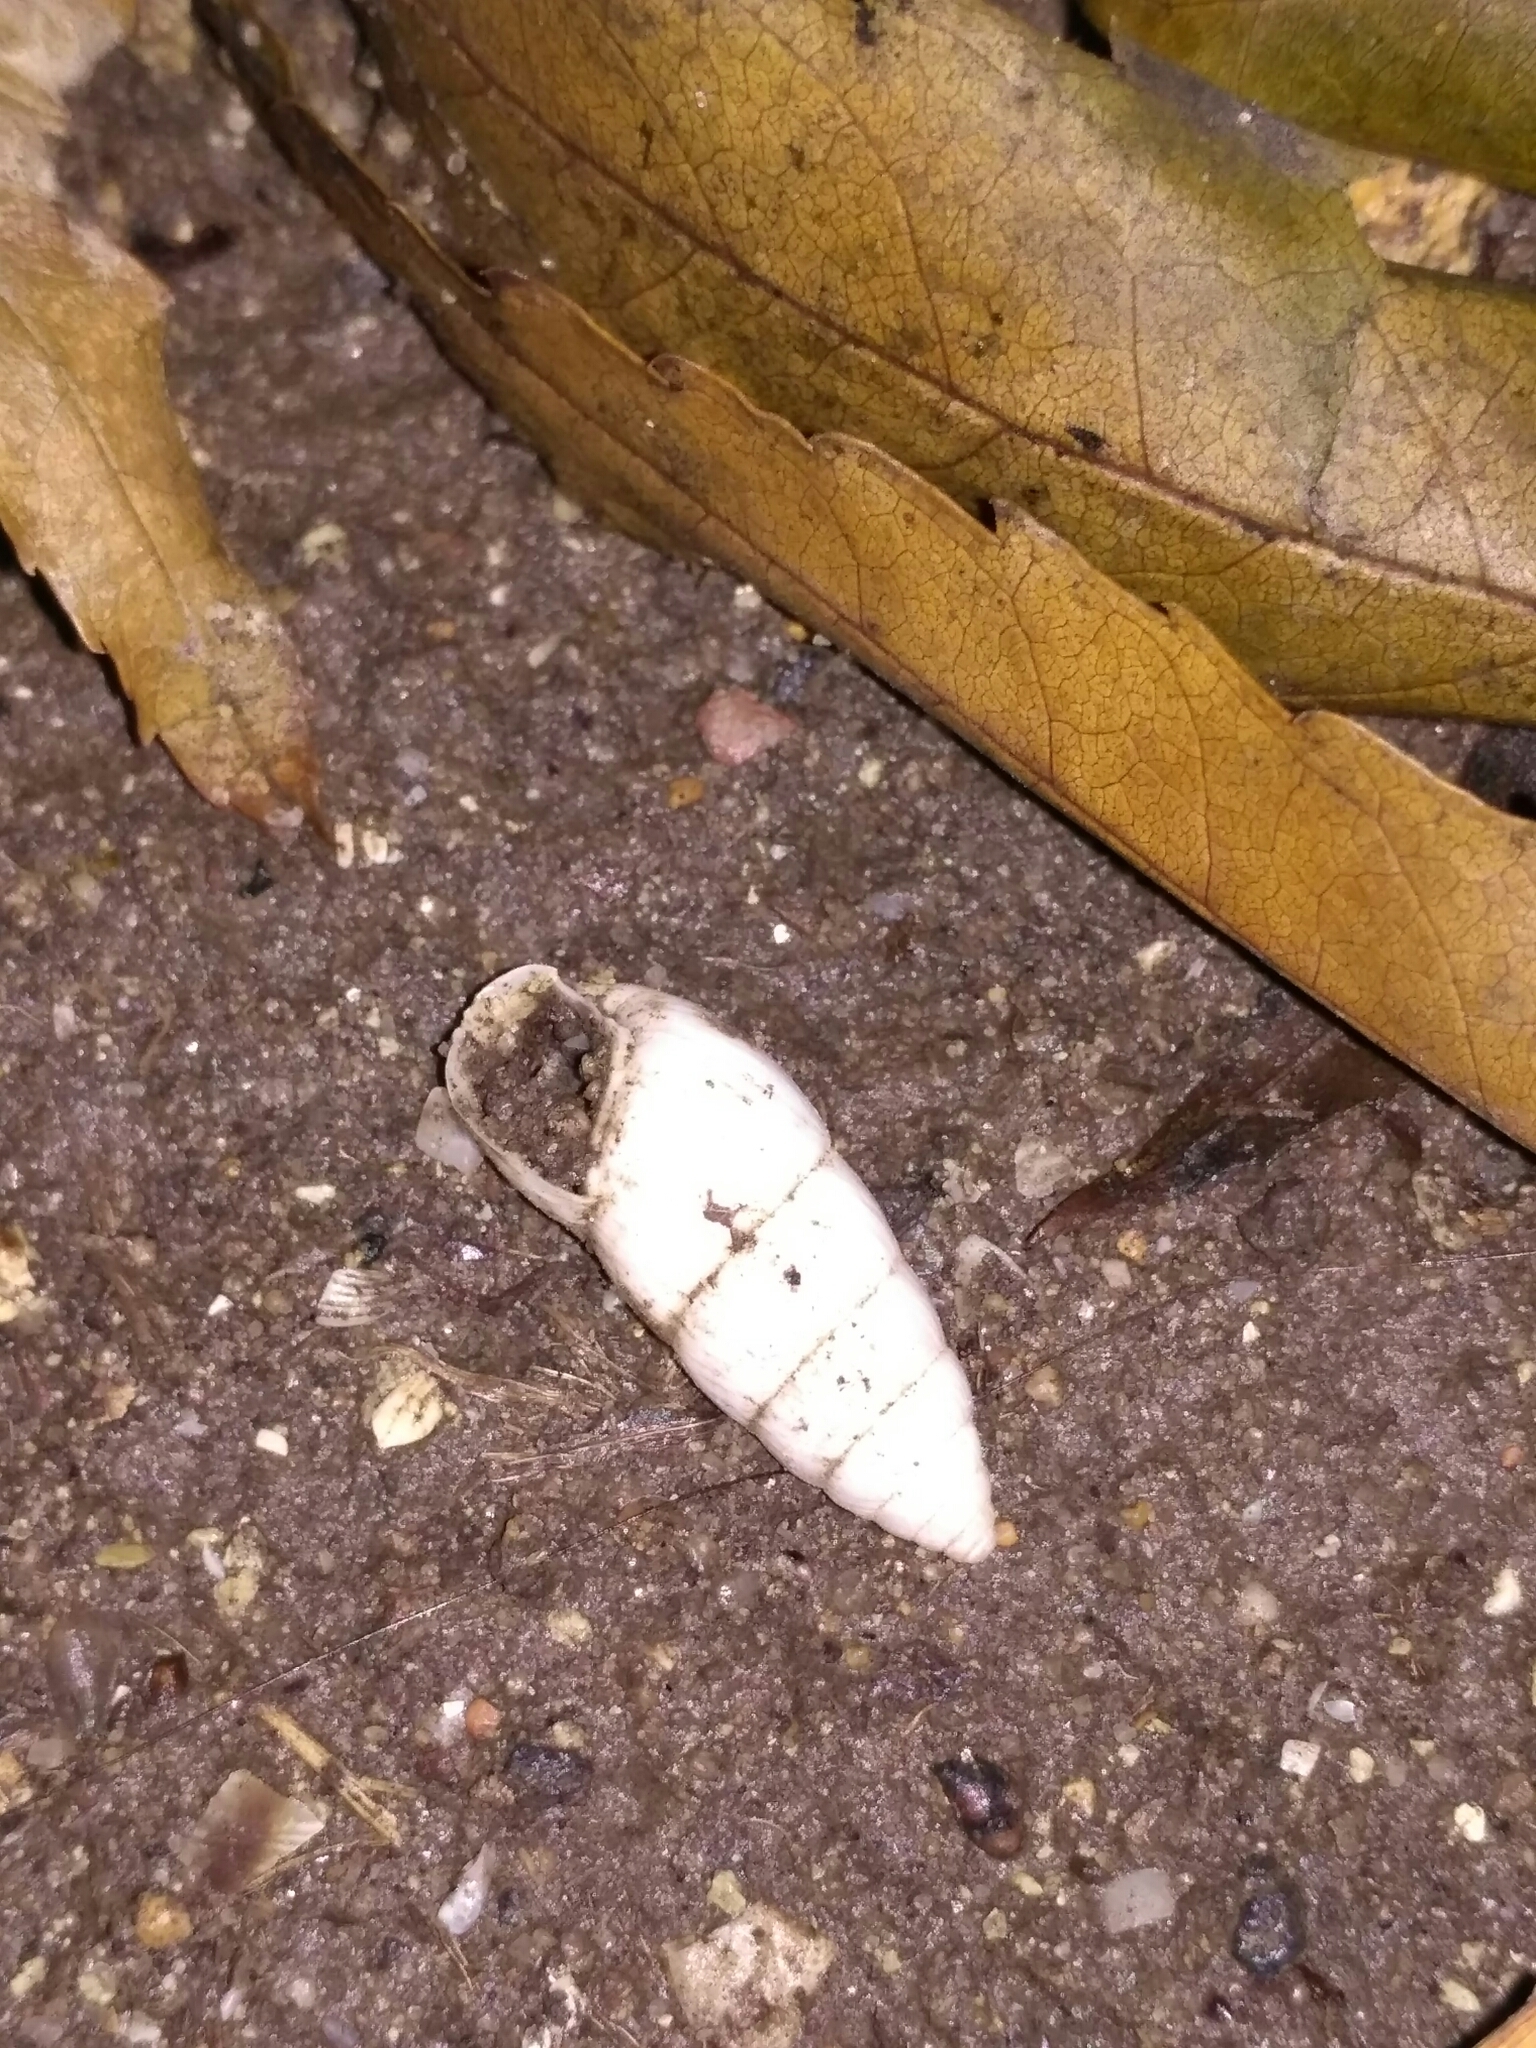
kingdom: Animalia
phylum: Mollusca
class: Gastropoda
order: Stylommatophora
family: Enidae
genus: Brephulopsis
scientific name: Brephulopsis cylindrica
